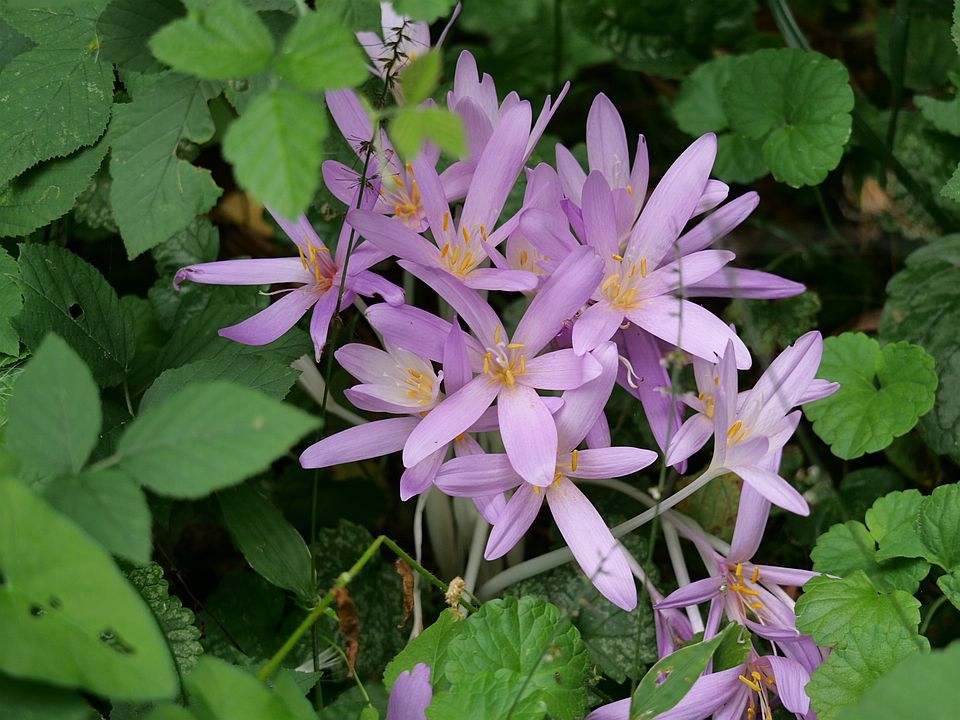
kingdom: Plantae
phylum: Tracheophyta
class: Liliopsida
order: Liliales
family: Colchicaceae
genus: Colchicum
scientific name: Colchicum autumnale
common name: Autumn crocus
